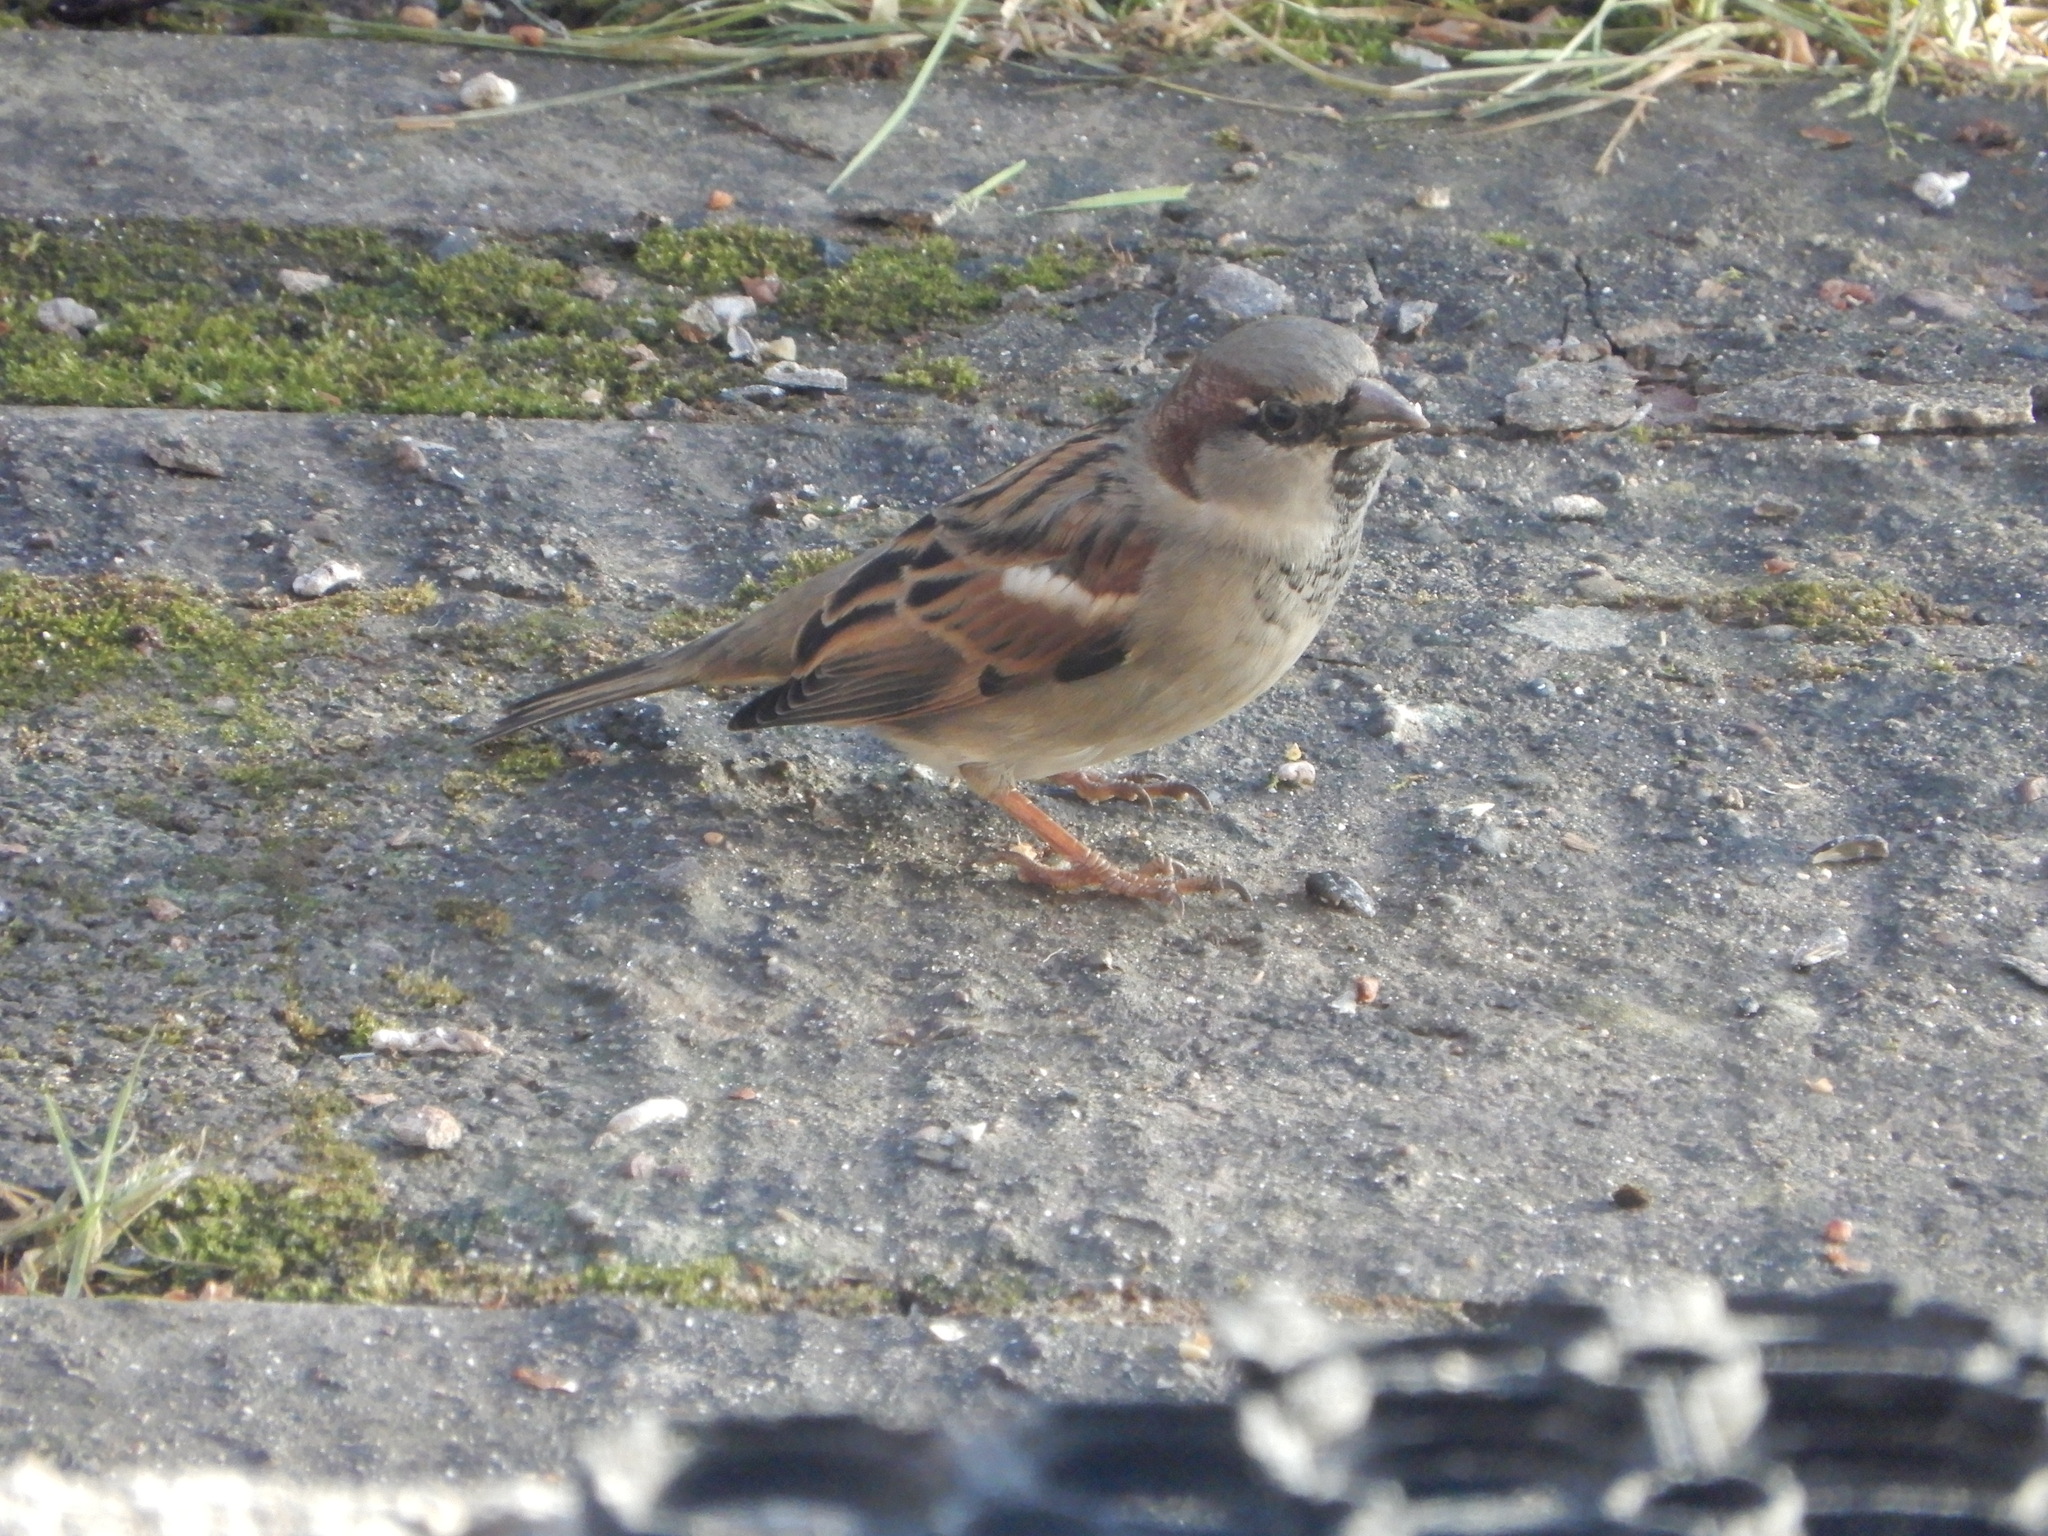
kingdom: Animalia
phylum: Chordata
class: Aves
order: Passeriformes
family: Passeridae
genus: Passer
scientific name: Passer domesticus
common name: House sparrow
